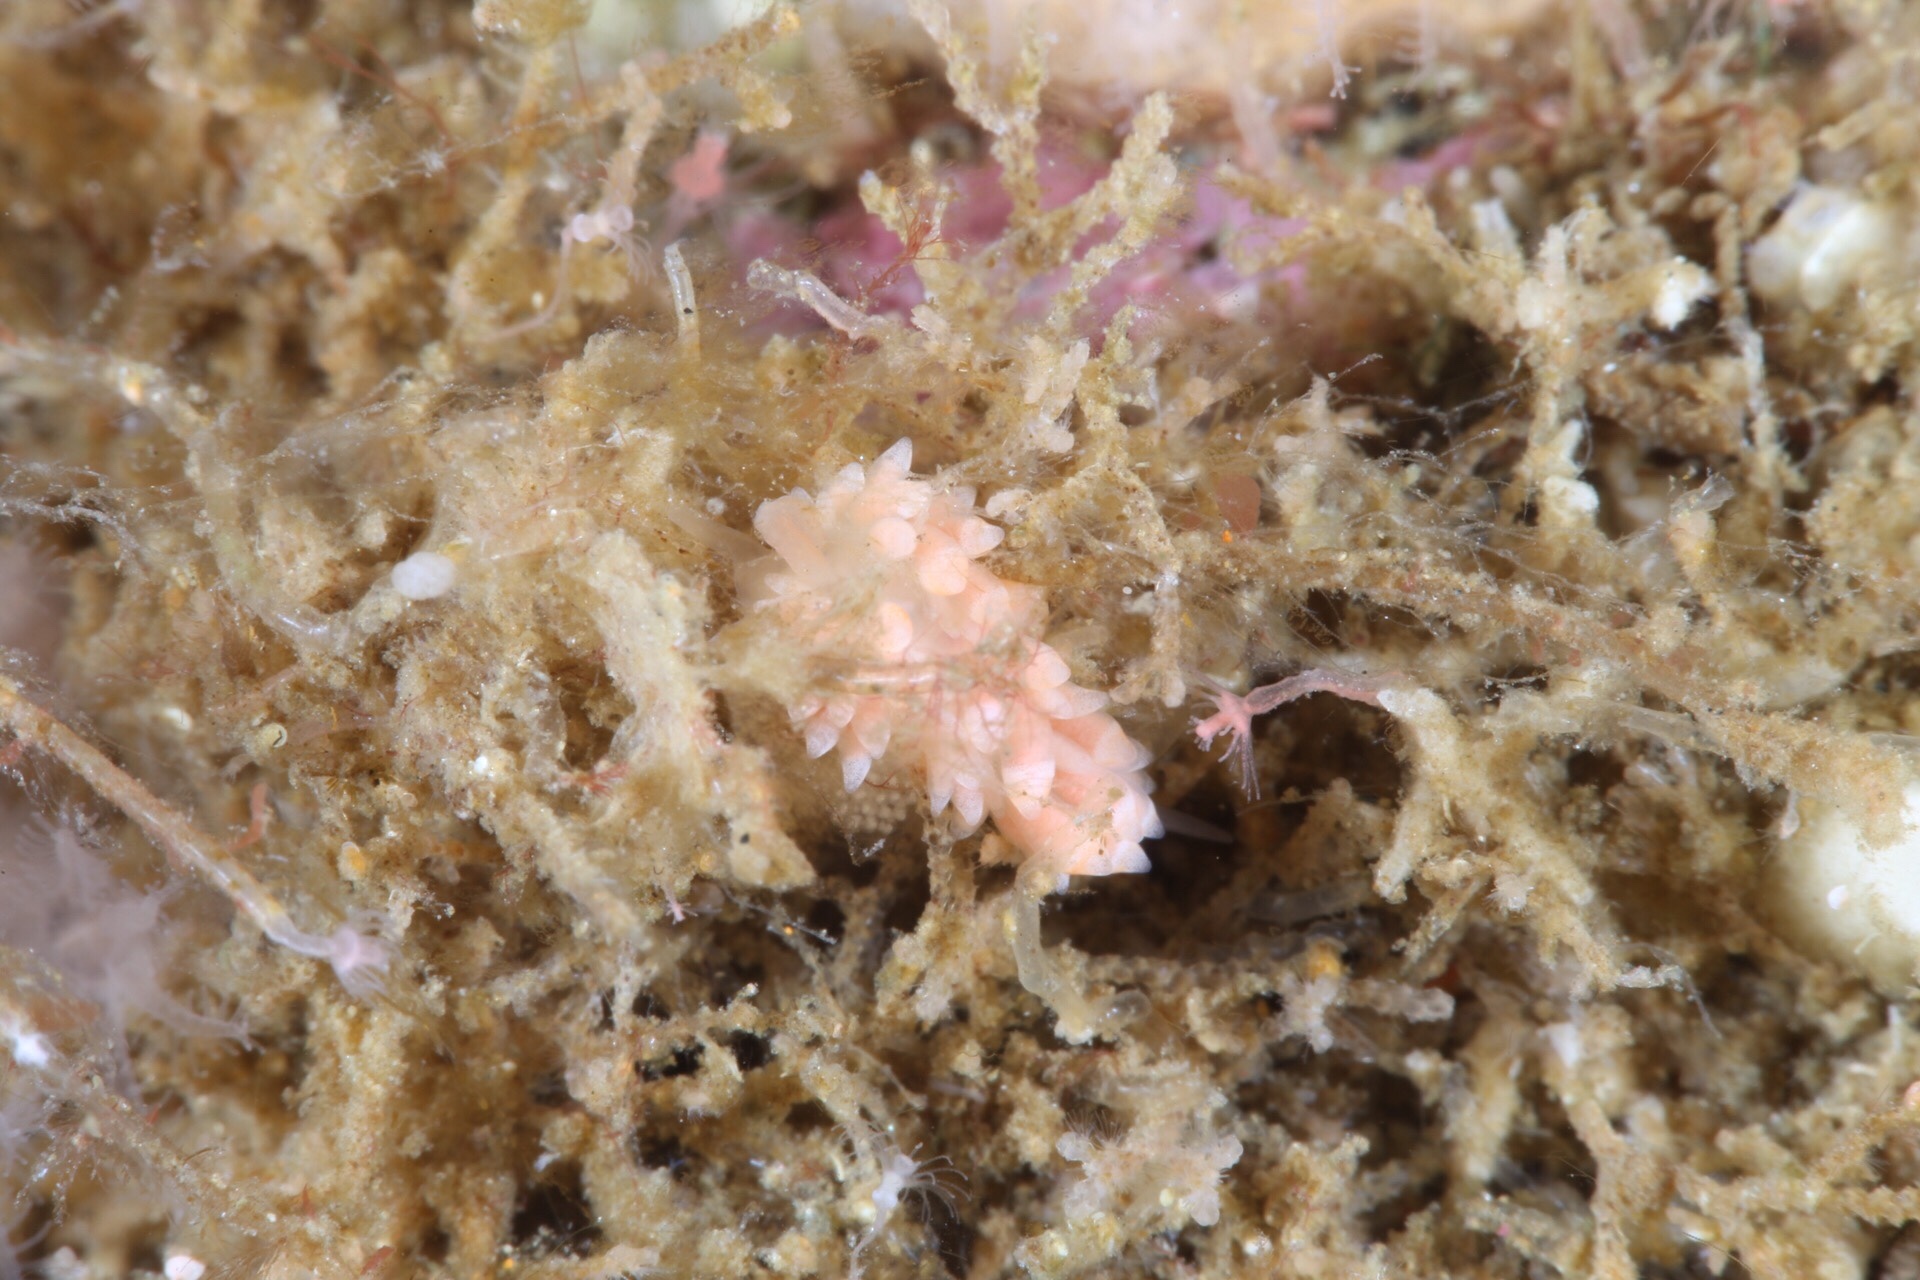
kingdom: Animalia
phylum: Mollusca
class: Gastropoda
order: Nudibranchia
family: Trinchesiidae
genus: Catriona
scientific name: Catriona aurantia
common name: Corange-tip cuthona
